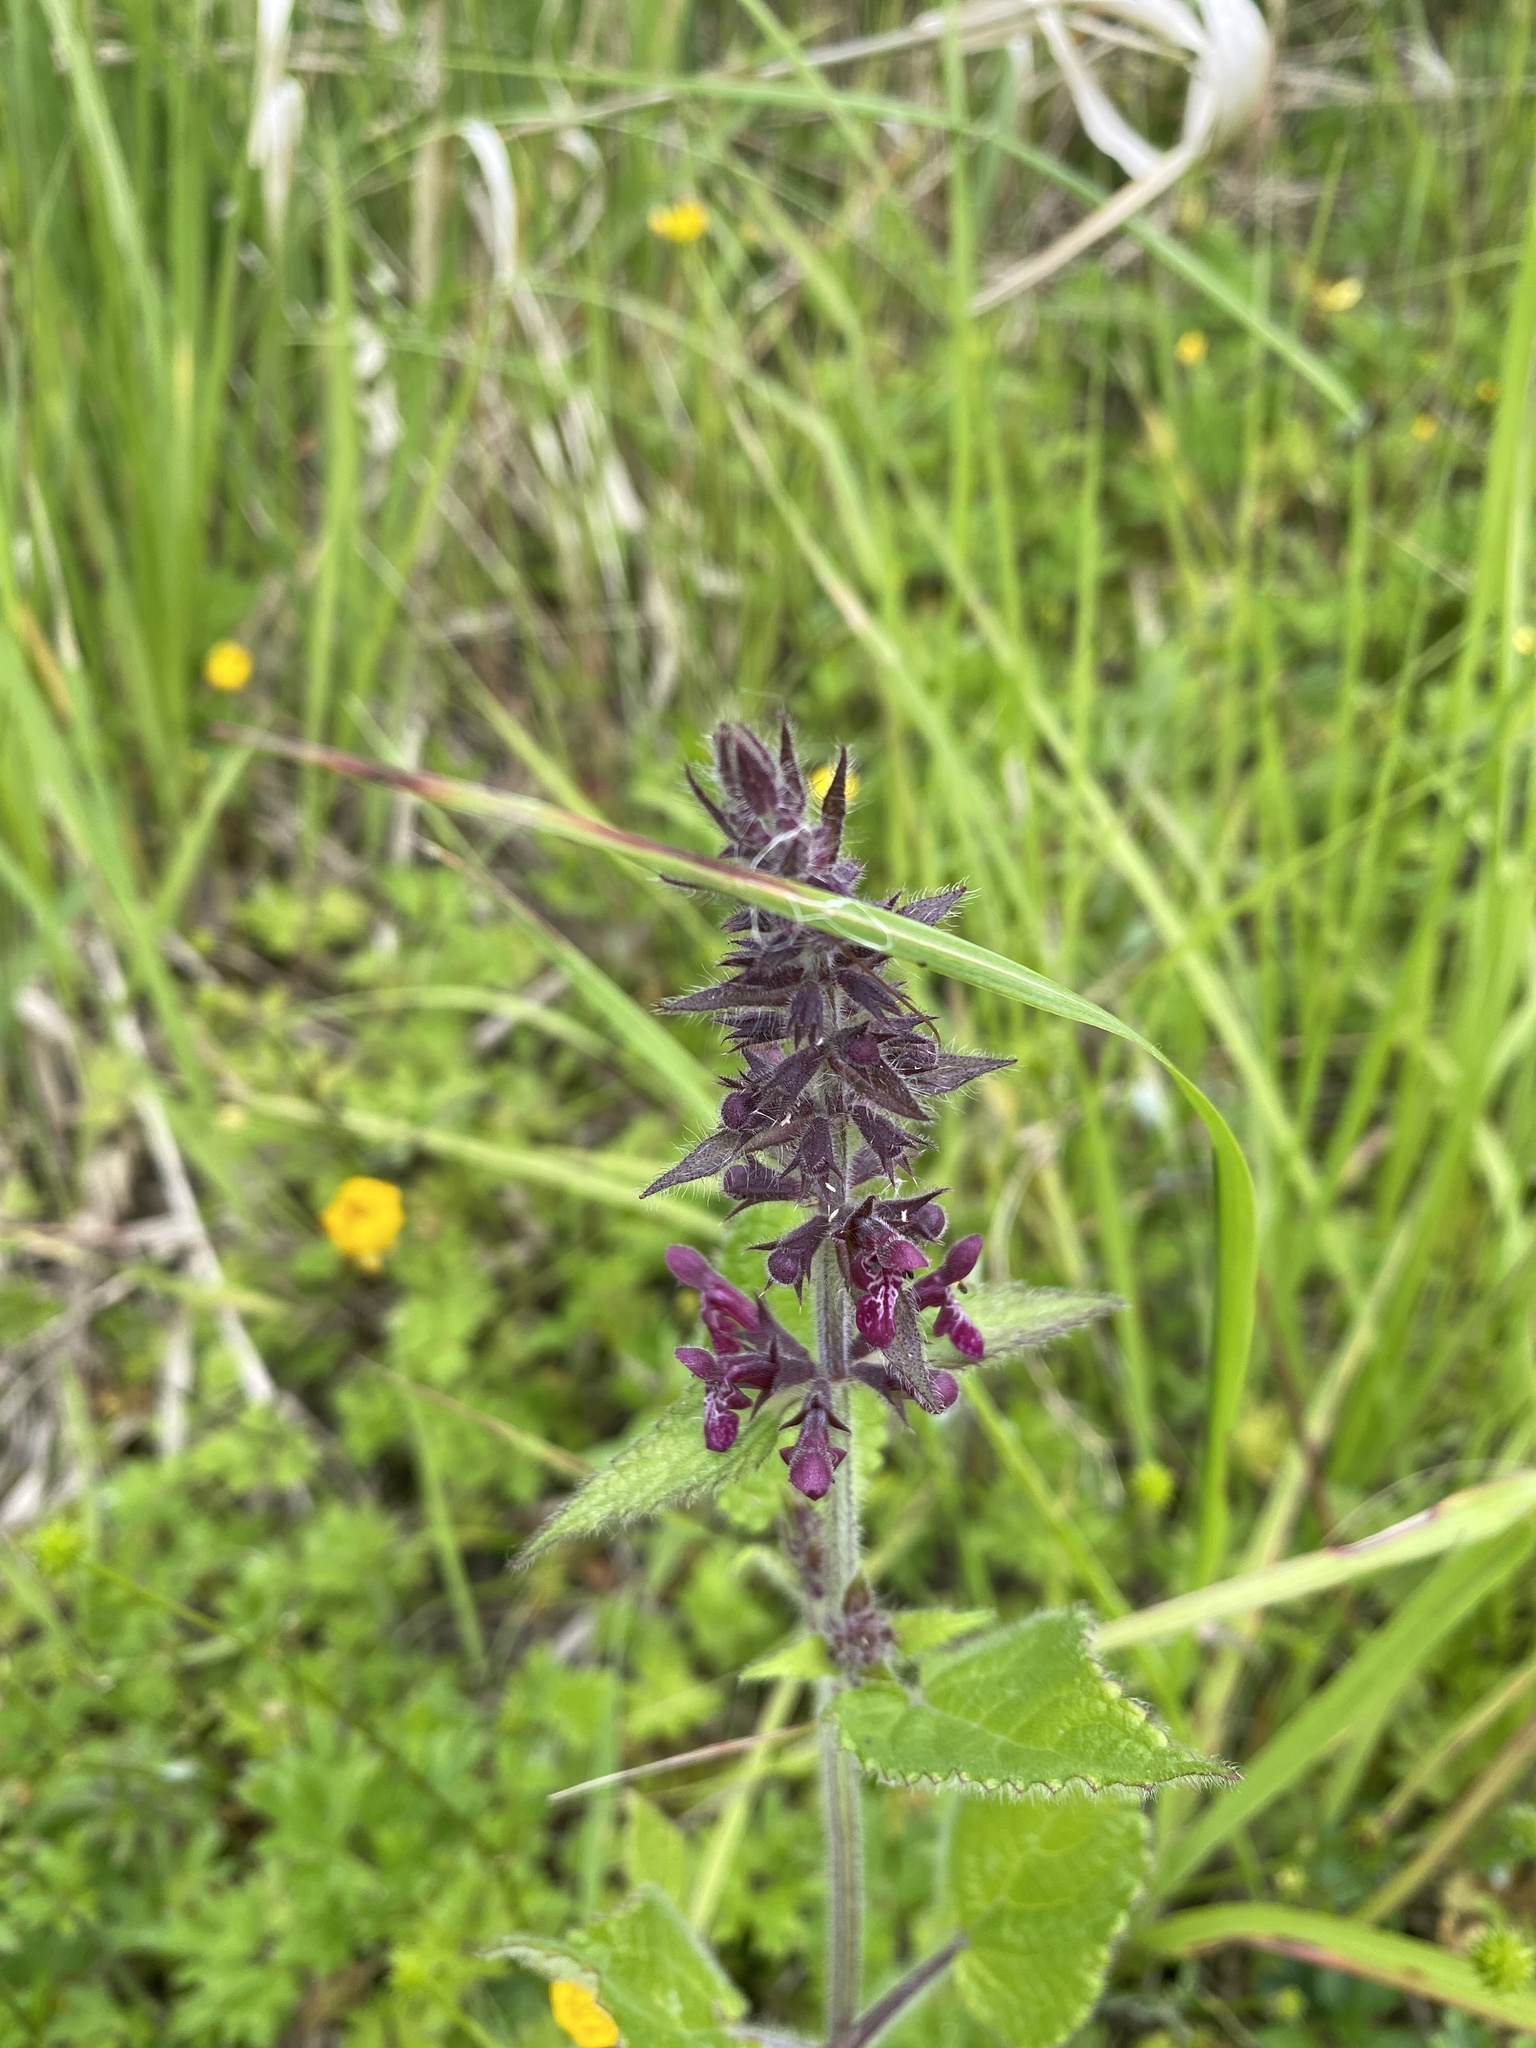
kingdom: Plantae
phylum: Tracheophyta
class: Magnoliopsida
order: Lamiales
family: Lamiaceae
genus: Stachys
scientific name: Stachys sylvatica
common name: Hedge woundwort
